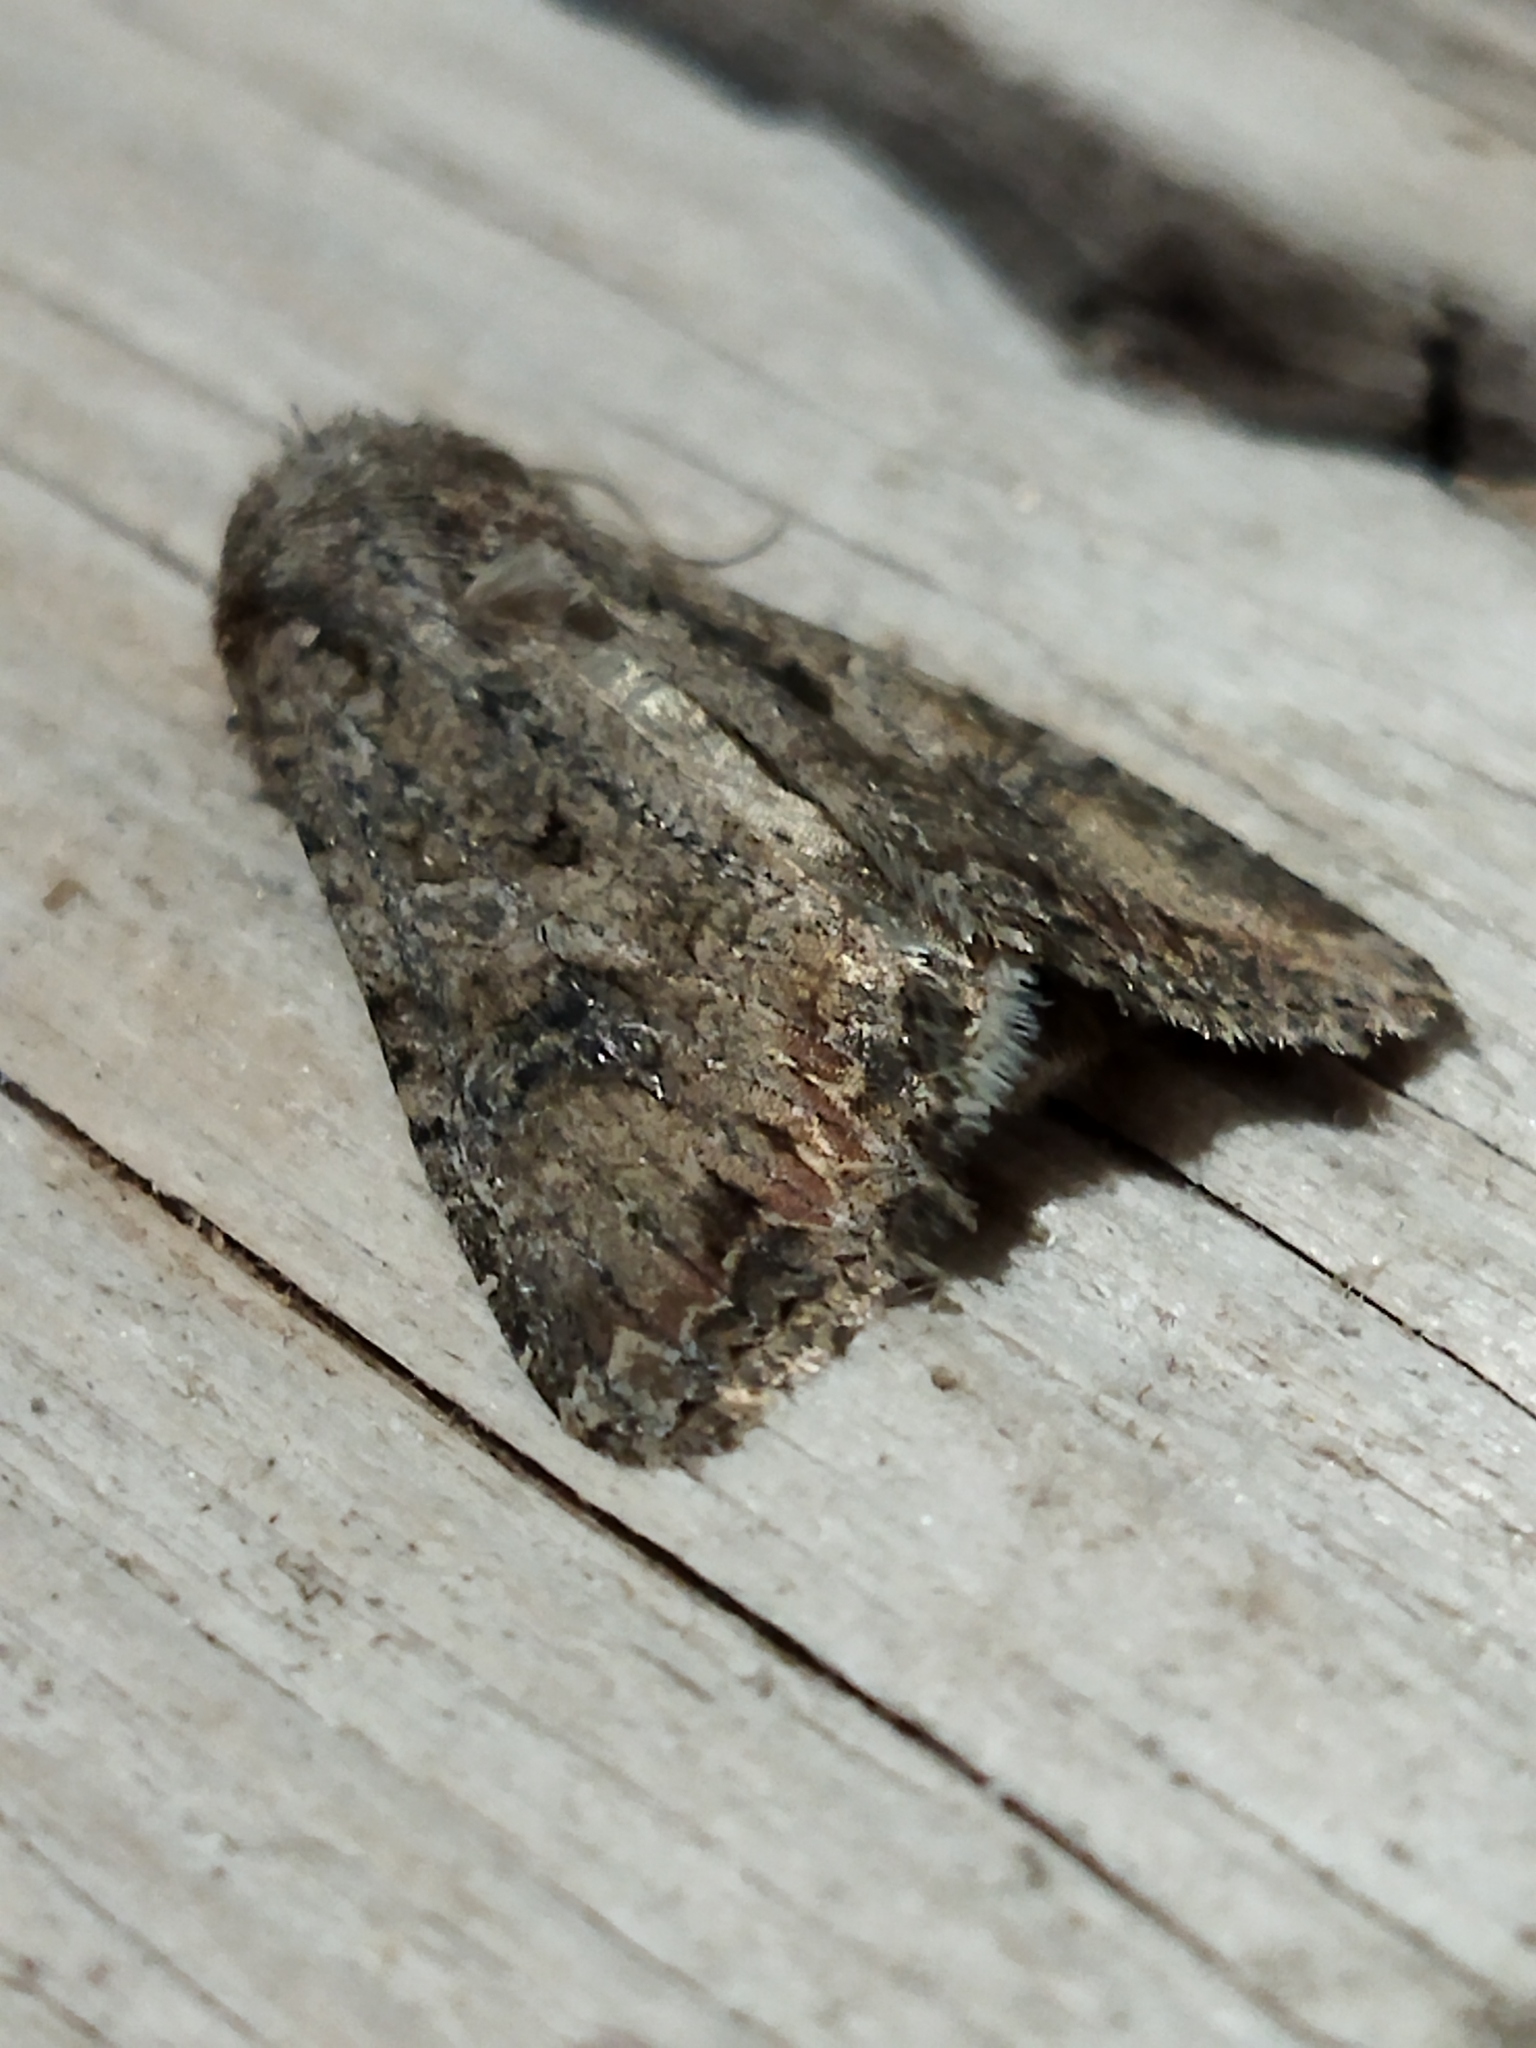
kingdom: Animalia
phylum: Arthropoda
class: Insecta
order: Lepidoptera
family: Noctuidae
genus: Anarta
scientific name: Anarta trifolii
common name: Clover cutworm moth
